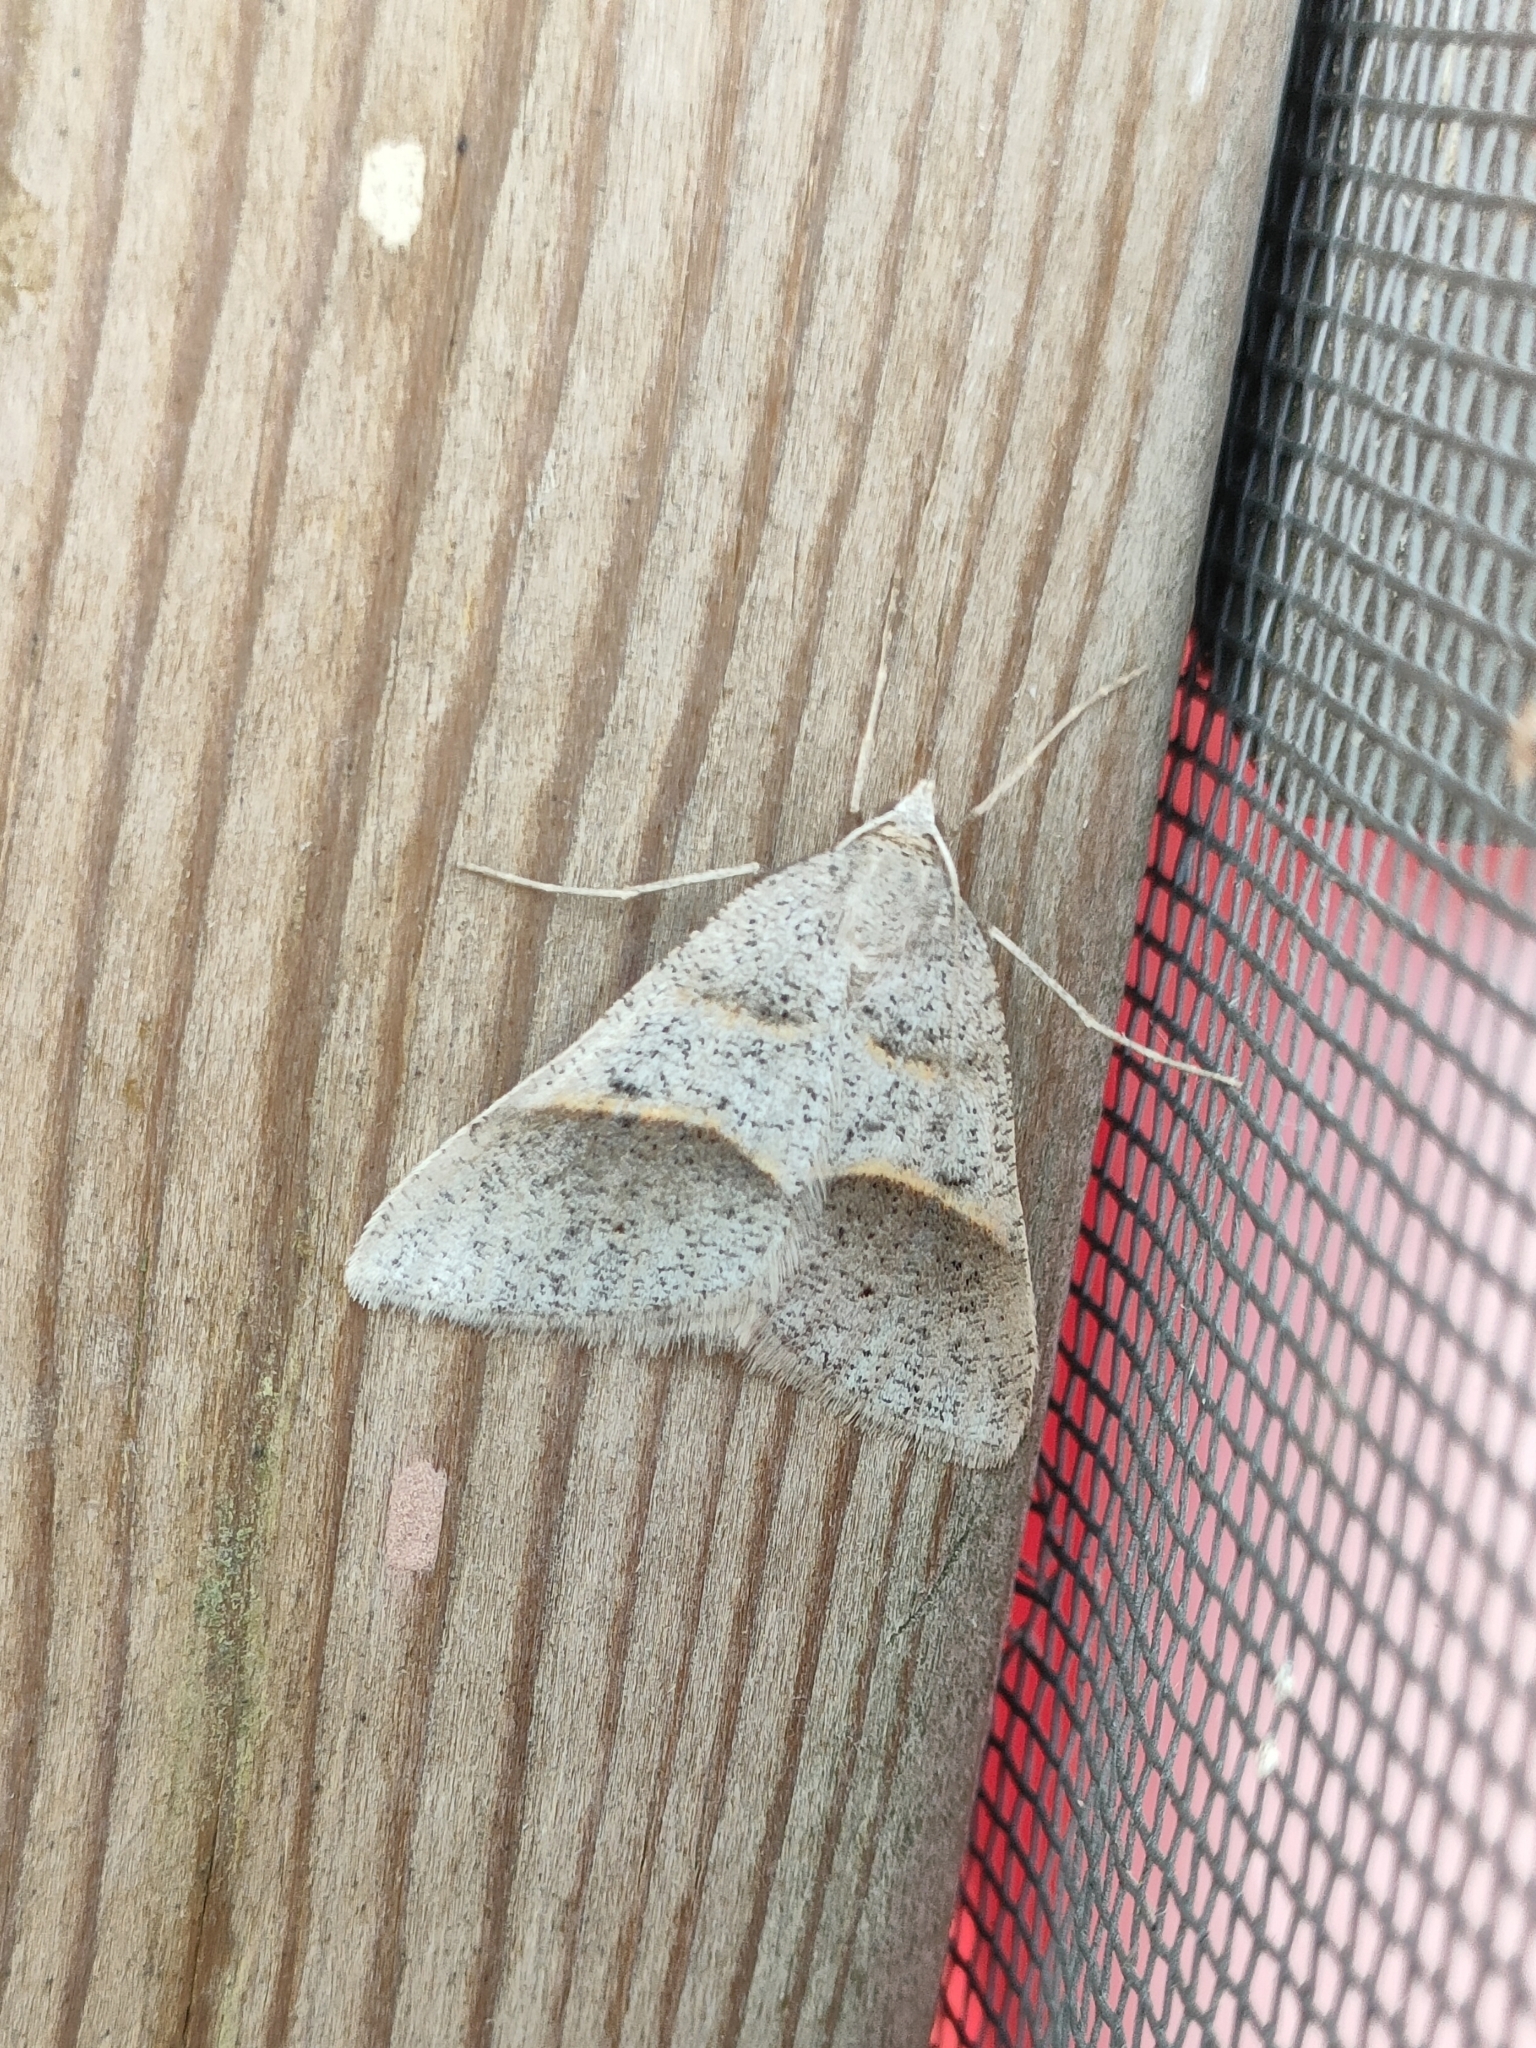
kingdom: Animalia
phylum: Arthropoda
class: Insecta
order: Lepidoptera
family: Pterophoridae
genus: Pterophorus
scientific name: Pterophorus Petrophora convergata
